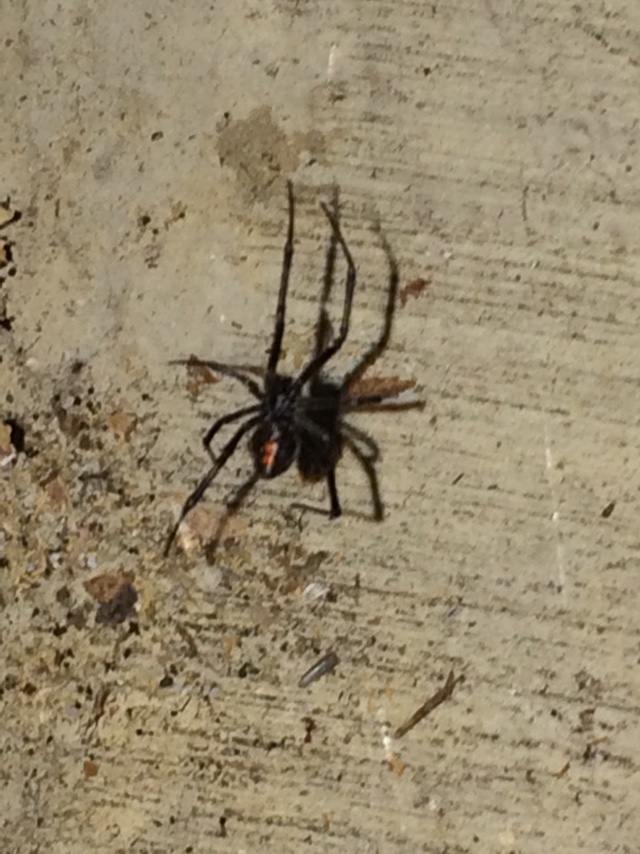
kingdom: Animalia
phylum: Arthropoda
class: Arachnida
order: Araneae
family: Theridiidae
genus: Latrodectus
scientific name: Latrodectus hesperus
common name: Western black widow
